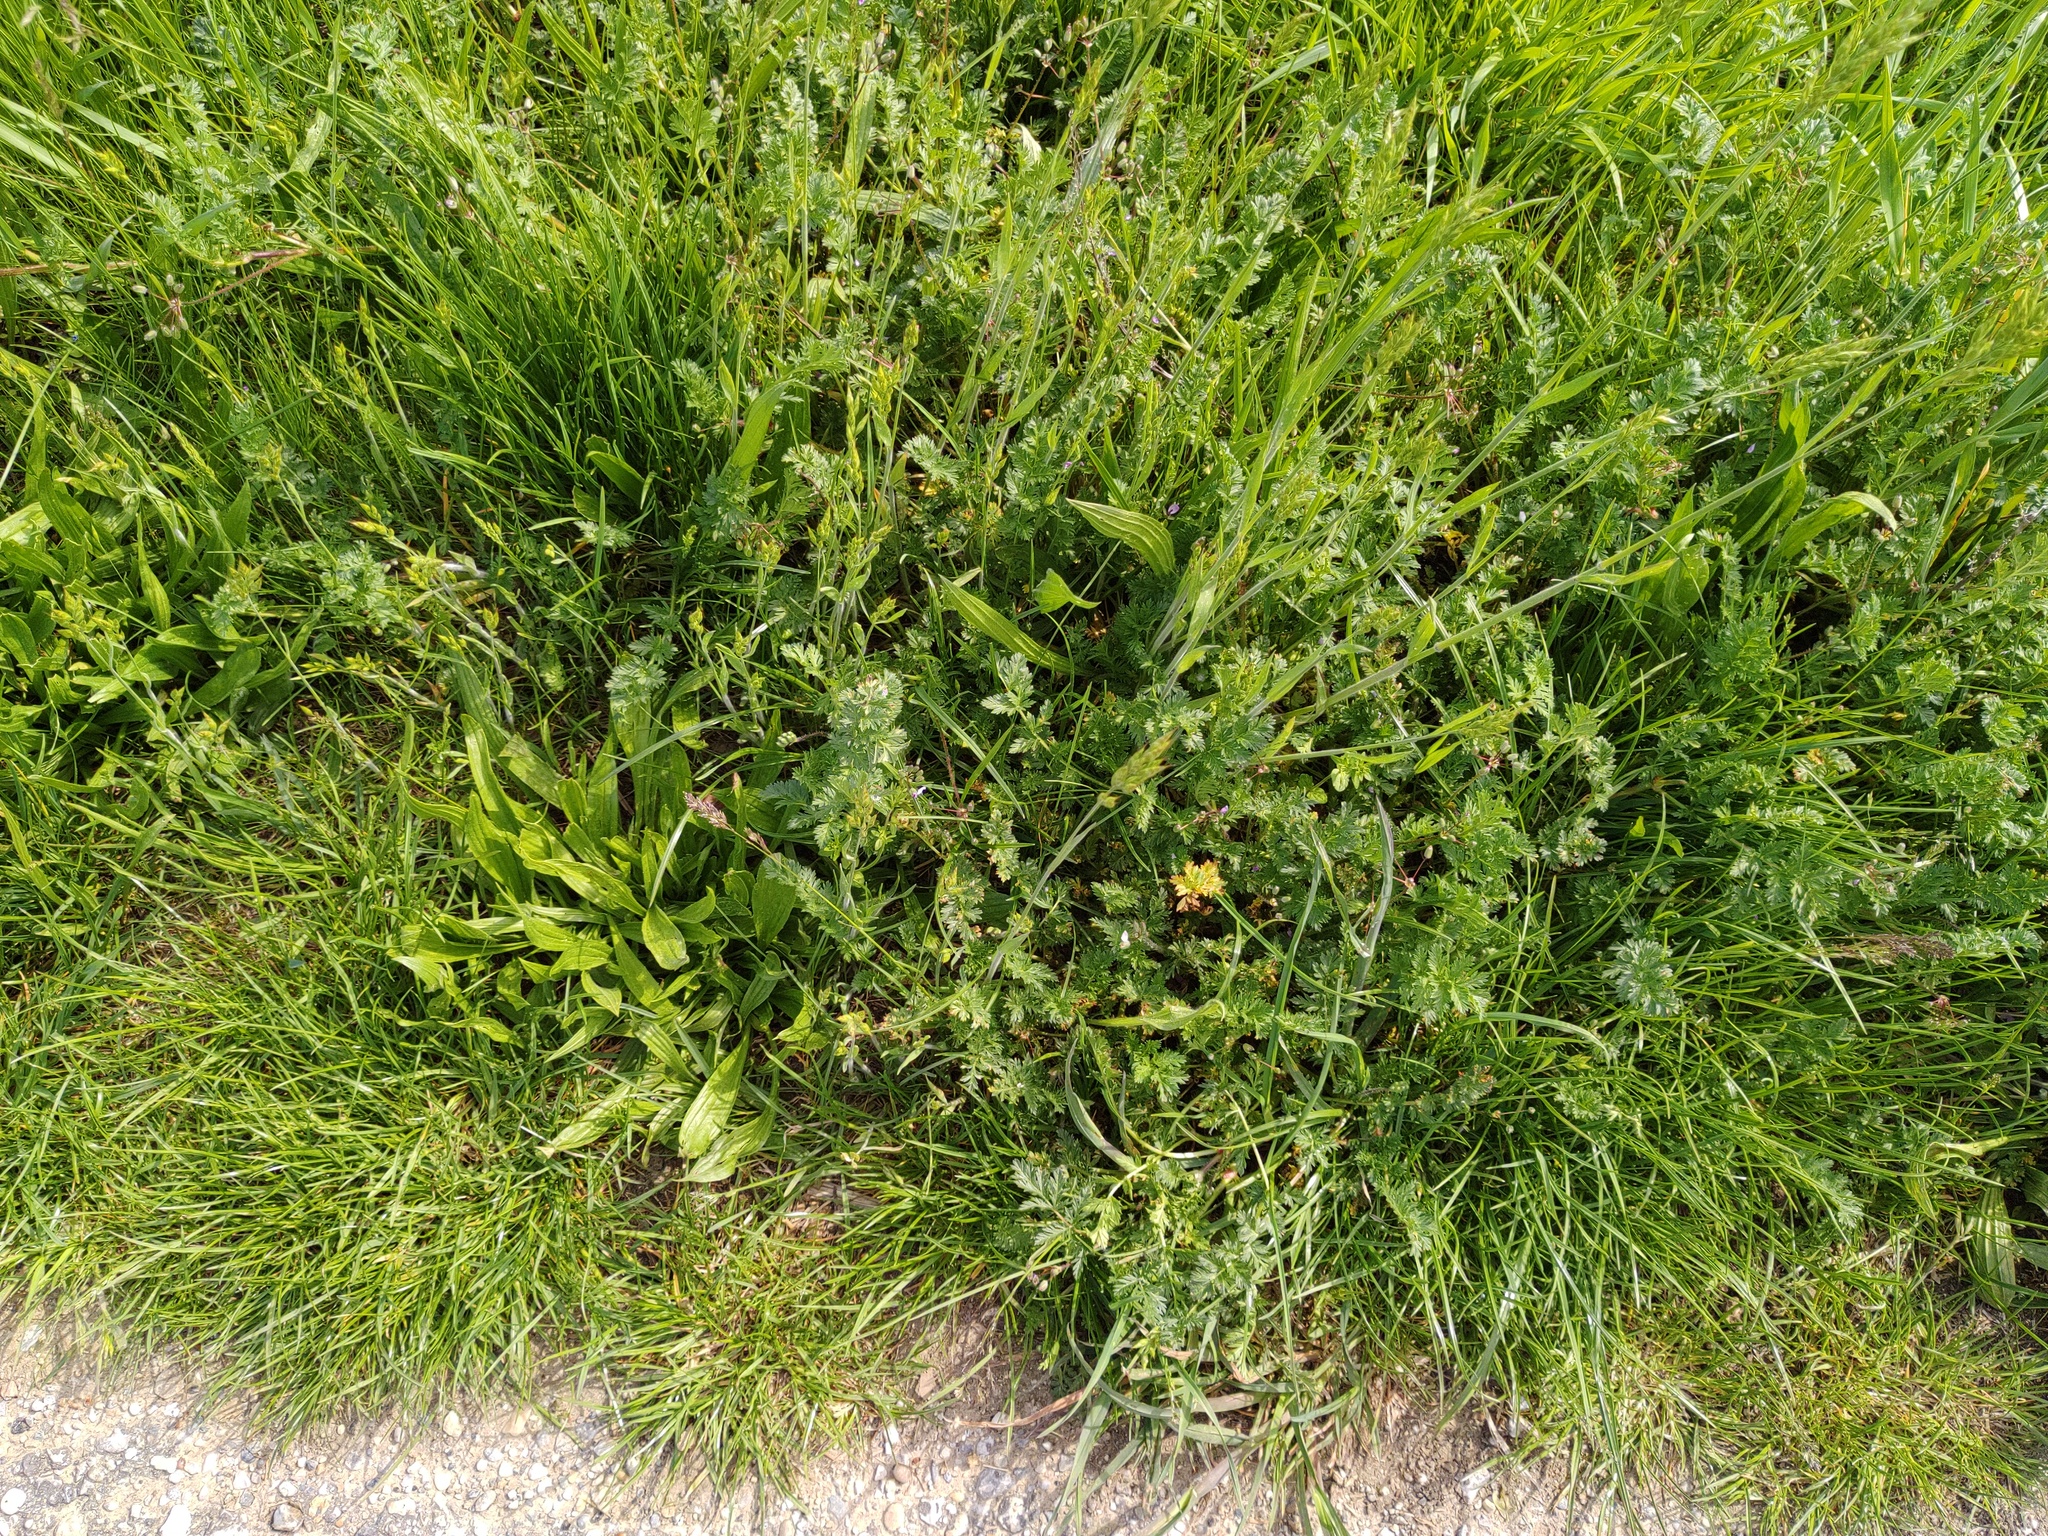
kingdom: Plantae
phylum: Tracheophyta
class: Magnoliopsida
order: Geraniales
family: Geraniaceae
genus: Erodium
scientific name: Erodium cicutarium
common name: Common stork's-bill
